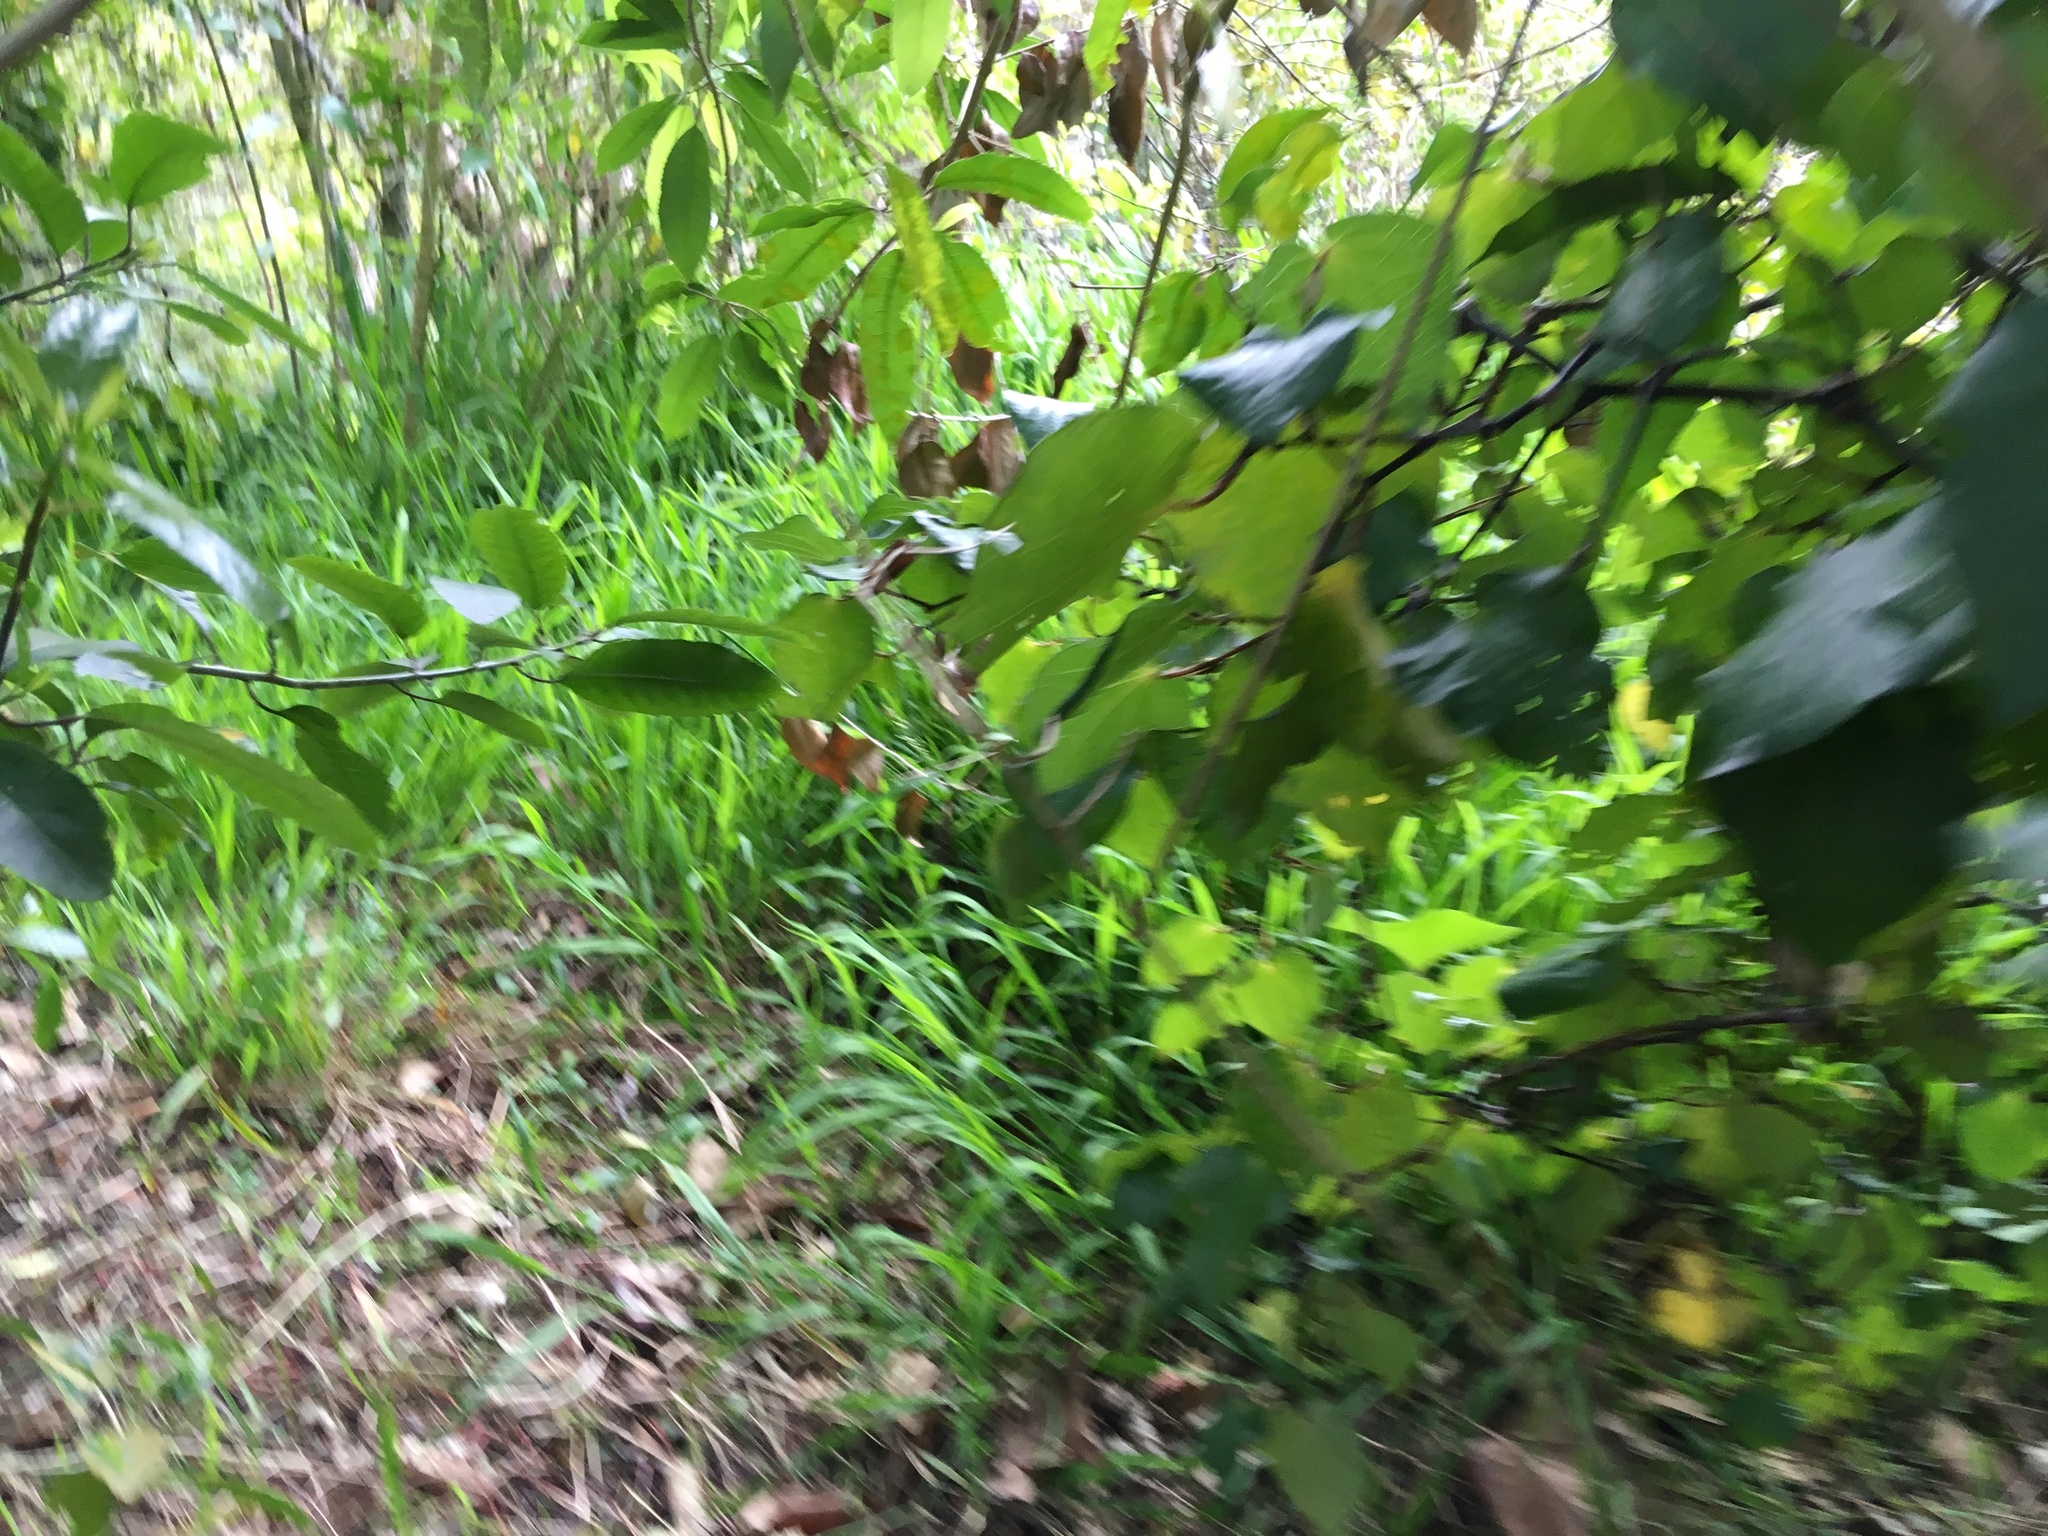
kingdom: Plantae
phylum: Tracheophyta
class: Liliopsida
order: Poales
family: Poaceae
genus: Ehrharta
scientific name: Ehrharta erecta
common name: Panic veldtgrass
